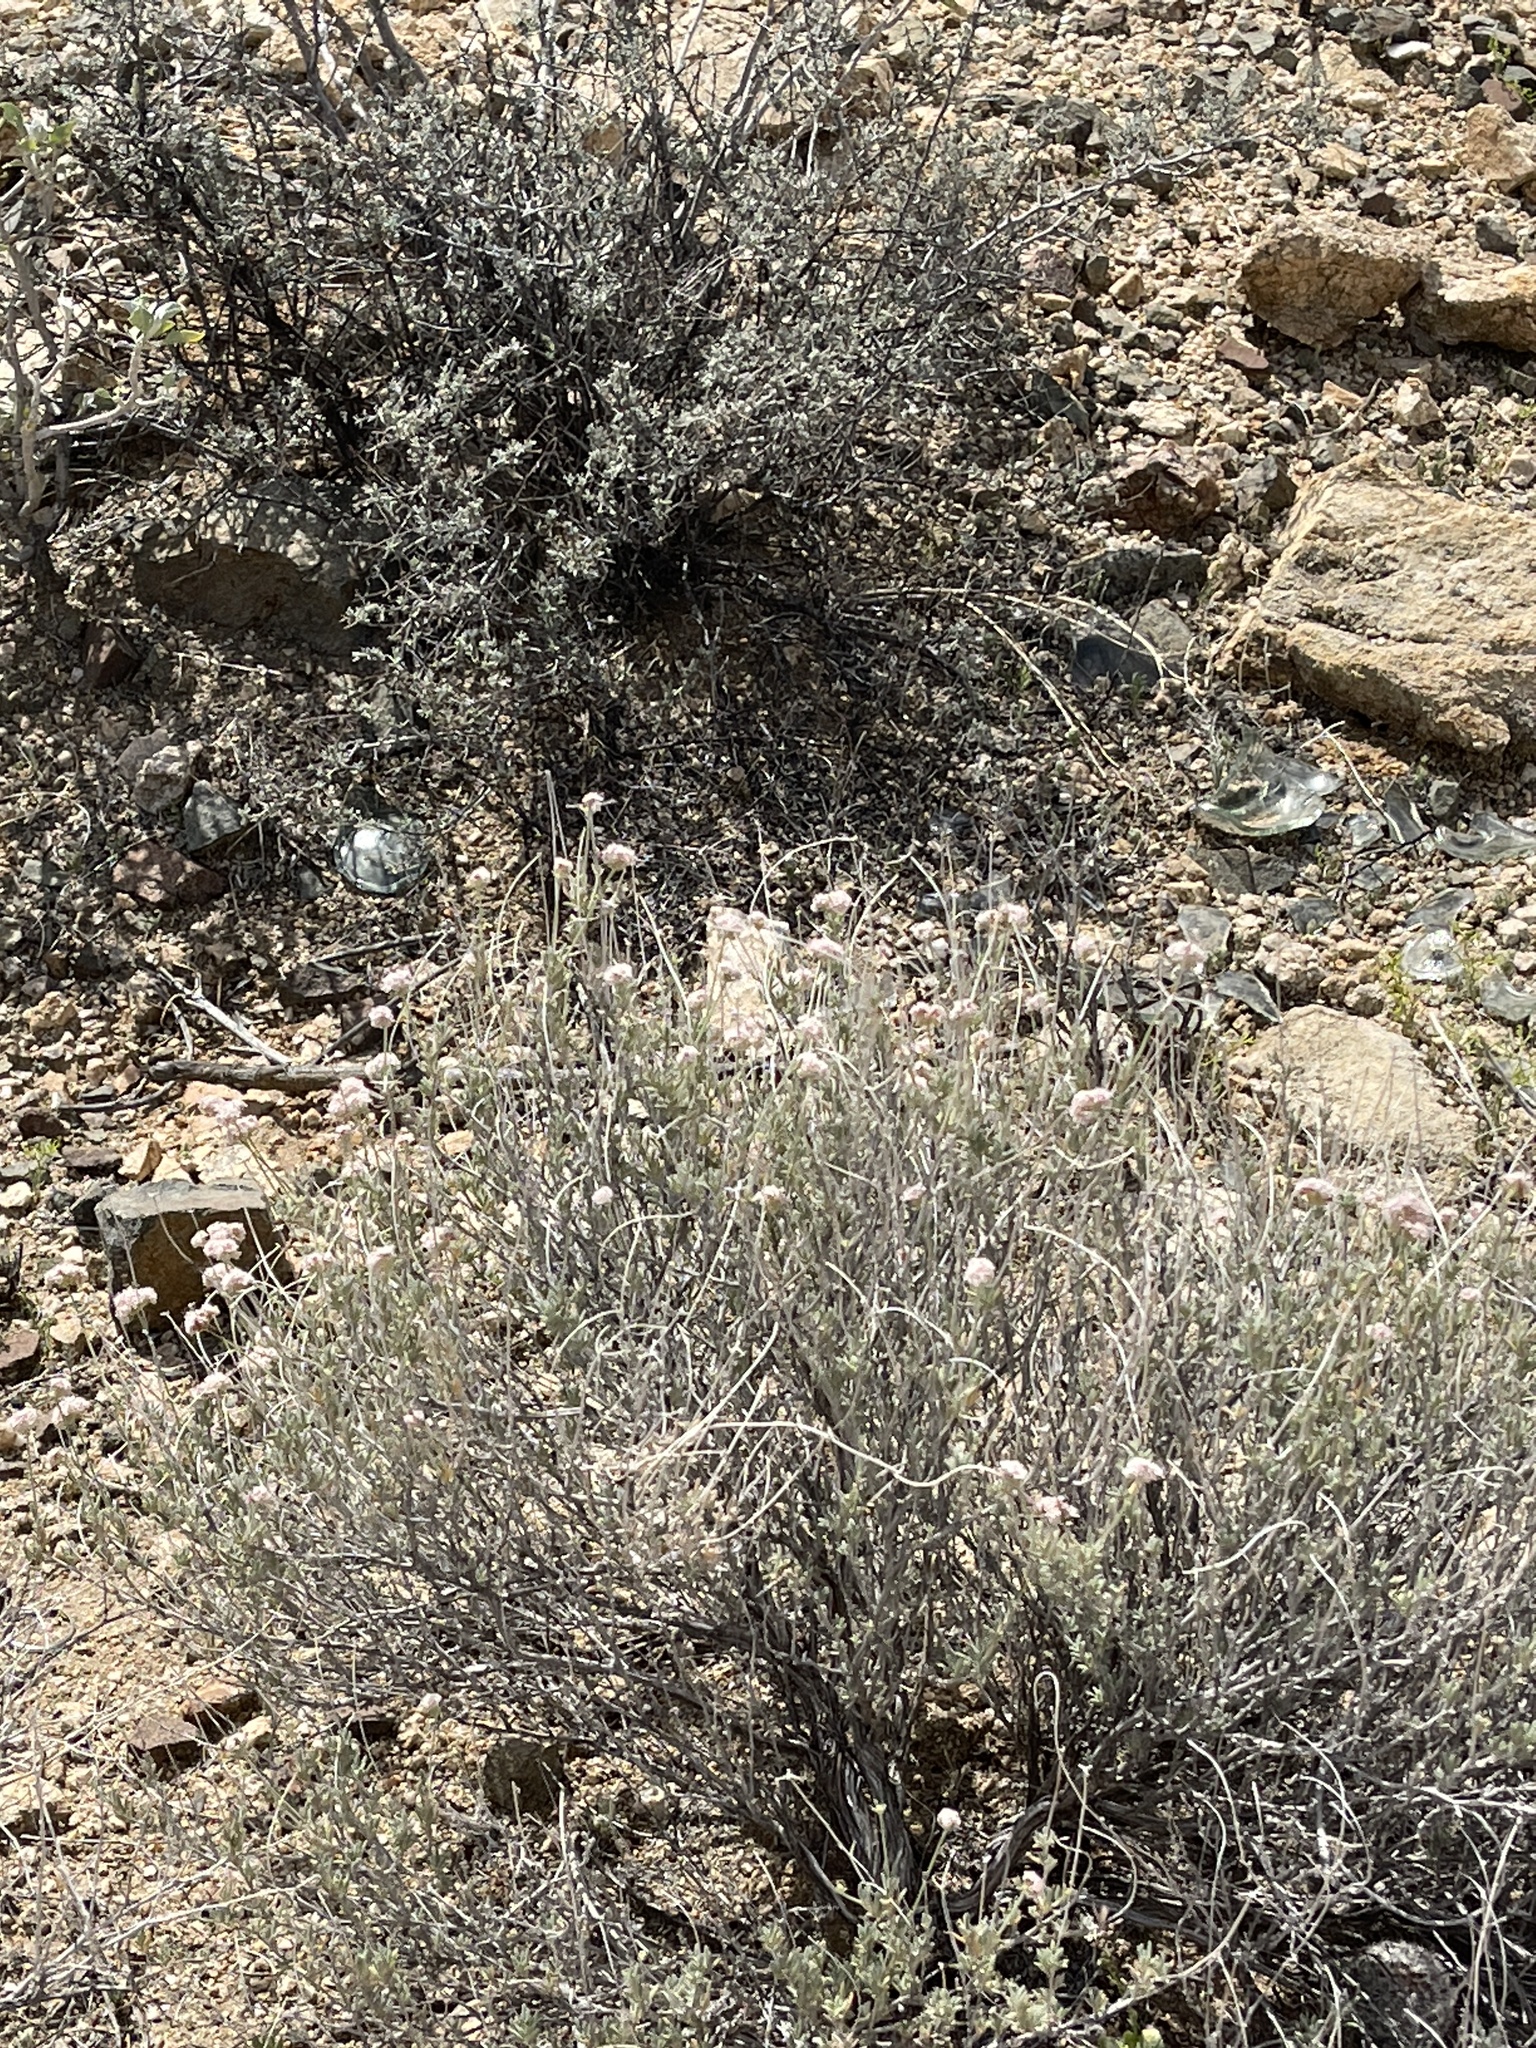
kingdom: Plantae
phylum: Tracheophyta
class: Magnoliopsida
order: Caryophyllales
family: Polygonaceae
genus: Eriogonum
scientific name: Eriogonum fasciculatum
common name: California wild buckwheat
